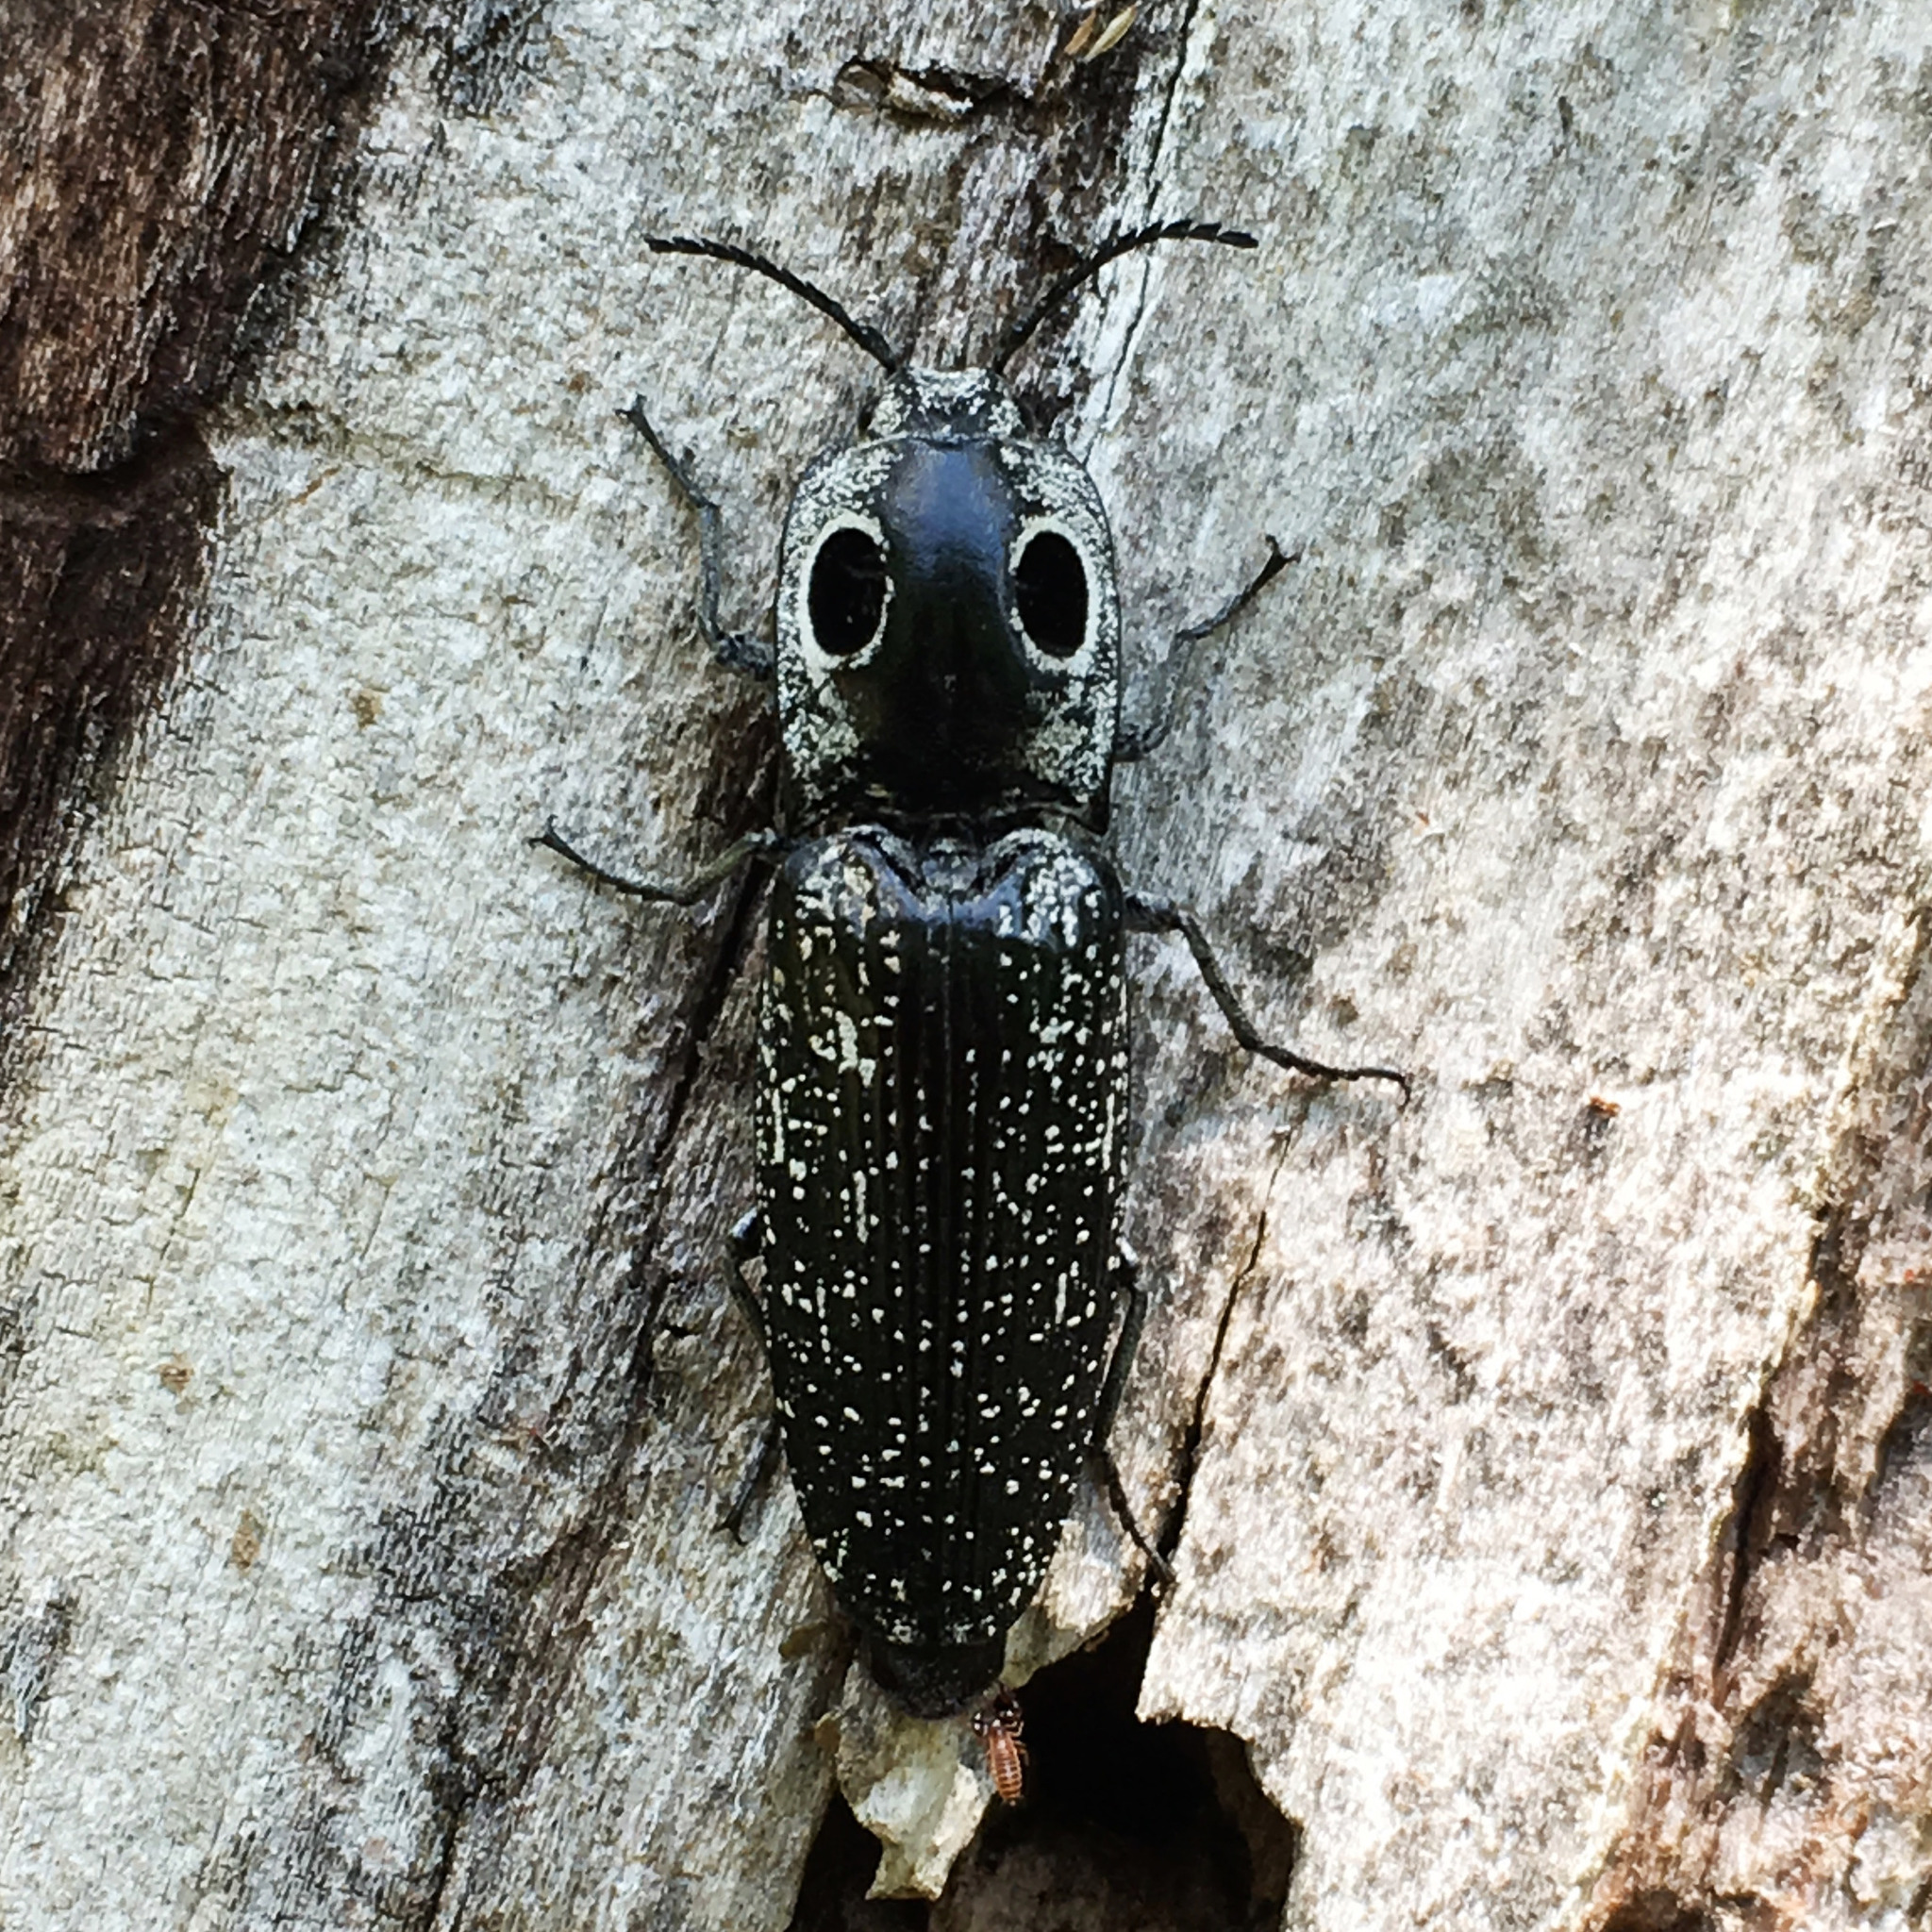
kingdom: Animalia
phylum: Arthropoda
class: Insecta
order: Coleoptera
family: Elateridae
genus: Alaus
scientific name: Alaus oculatus
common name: Eastern eyed click beetle
